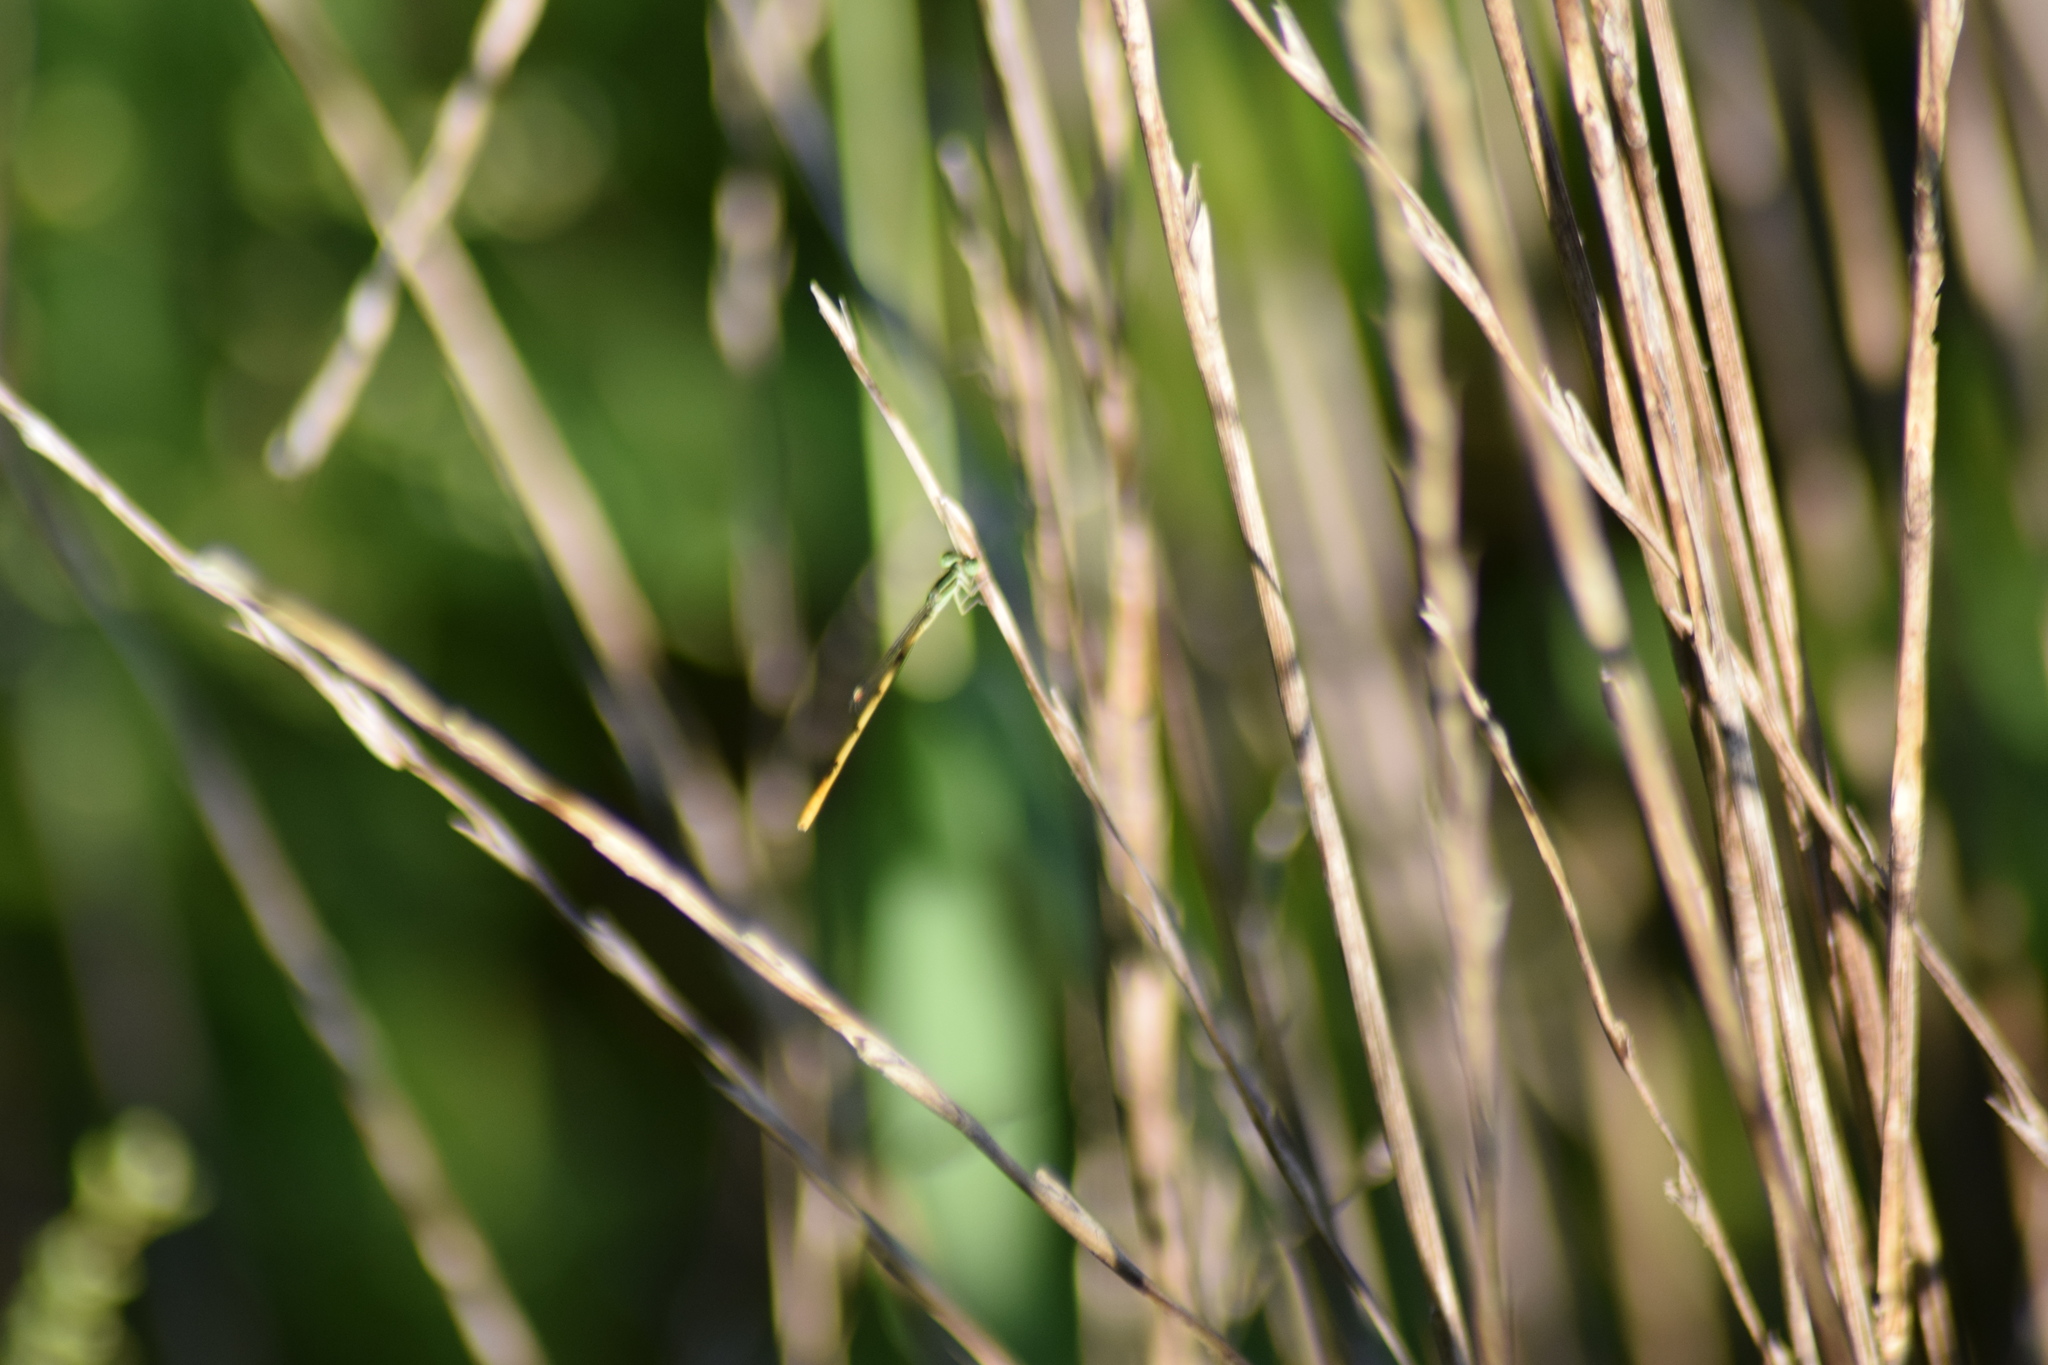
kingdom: Animalia
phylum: Arthropoda
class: Insecta
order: Odonata
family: Coenagrionidae
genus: Ischnura
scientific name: Ischnura hastata
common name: Citrine forktail
